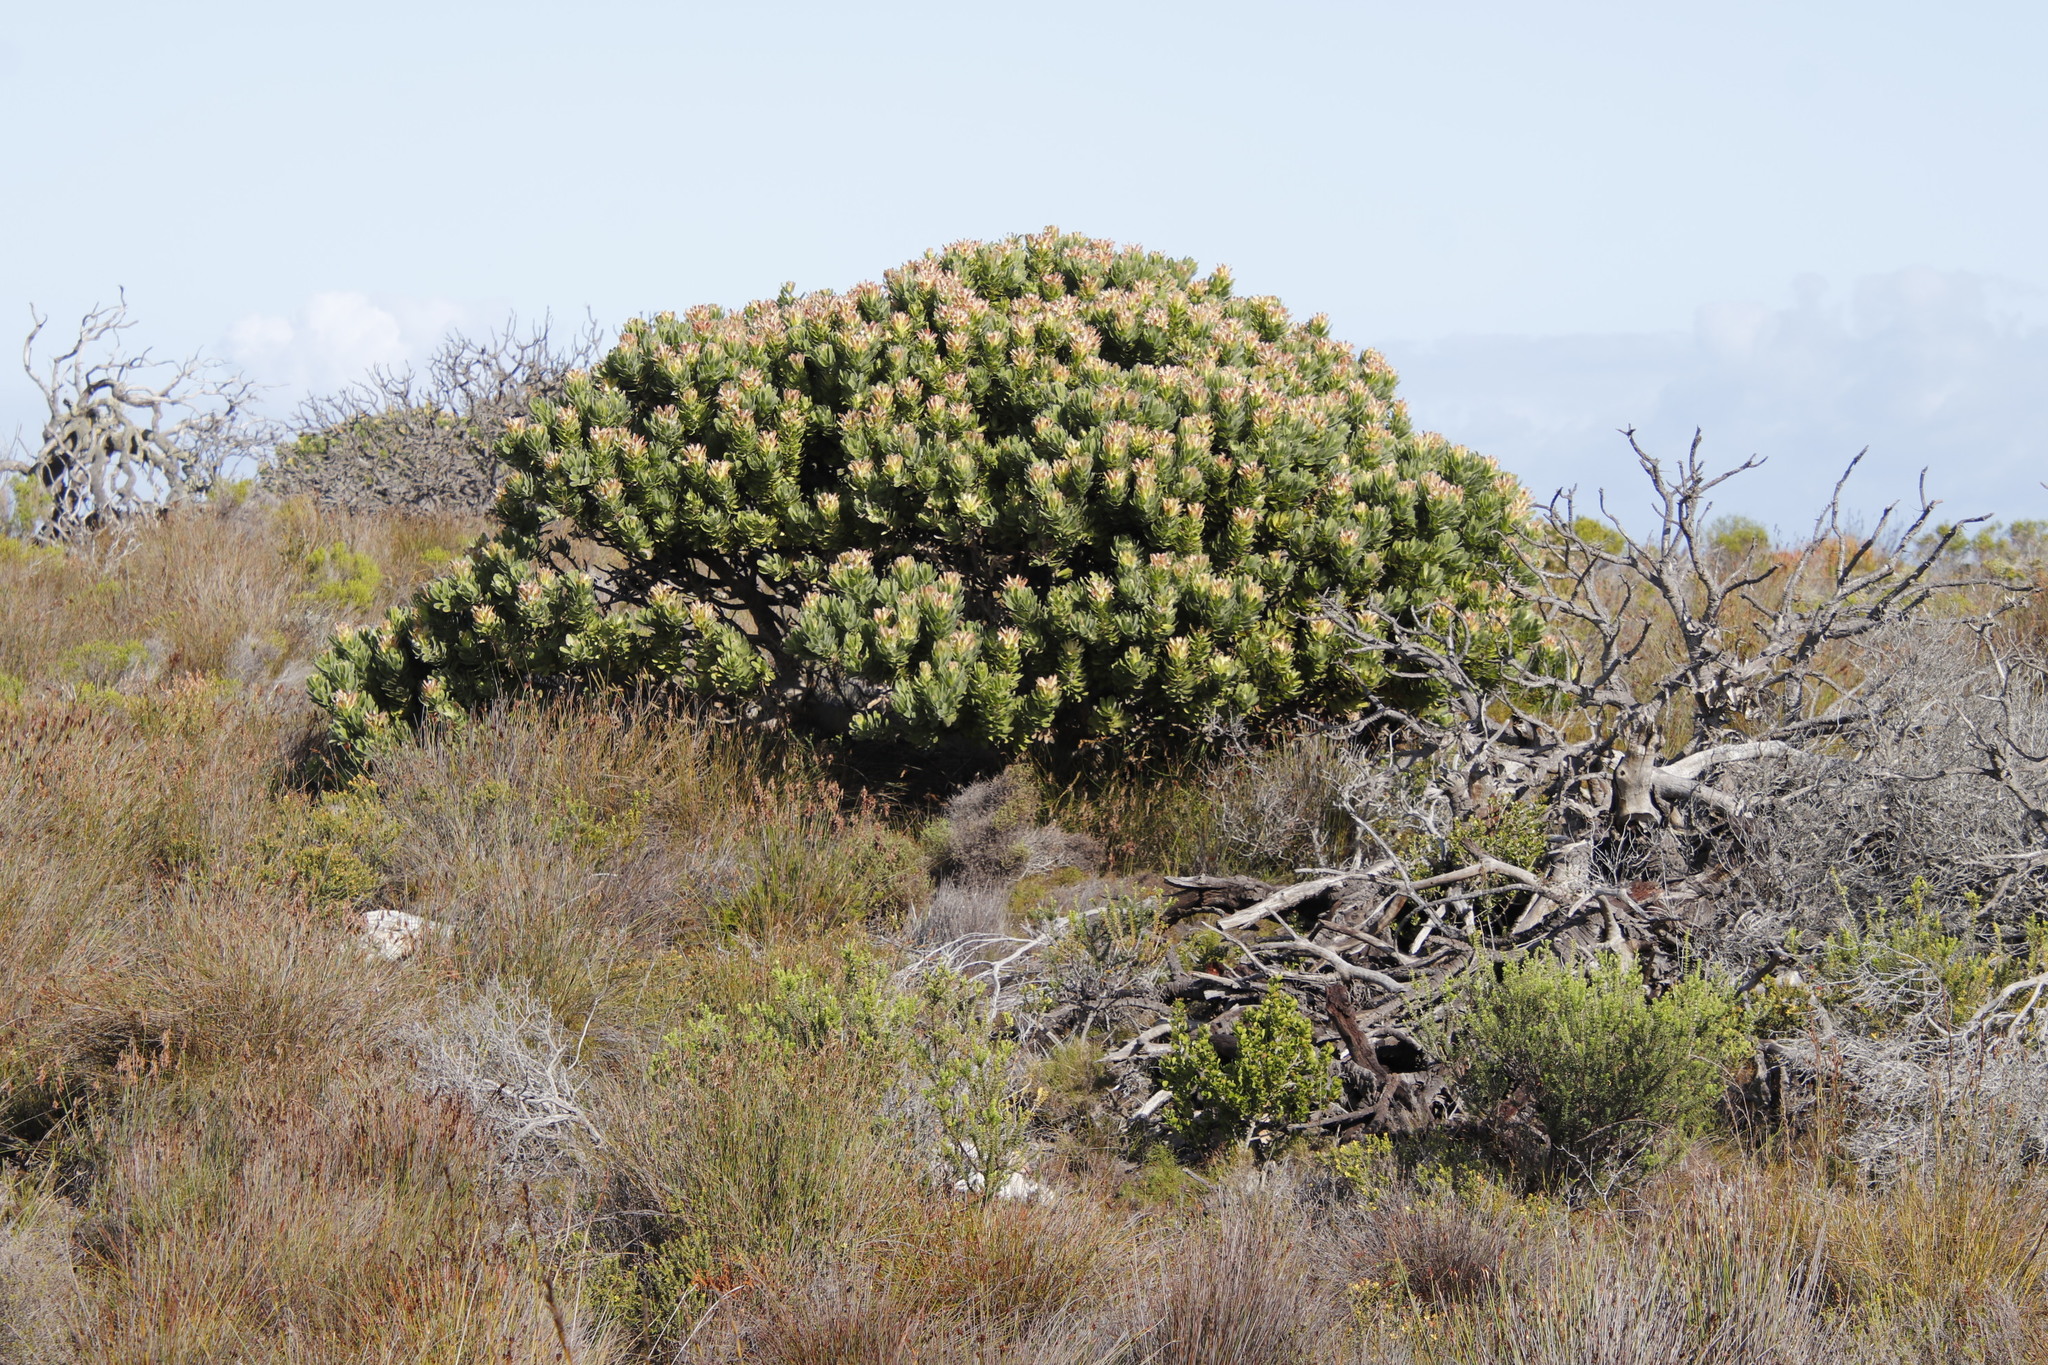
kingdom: Plantae
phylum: Tracheophyta
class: Magnoliopsida
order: Proteales
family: Proteaceae
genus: Mimetes
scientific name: Mimetes fimbriifolius
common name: Fringed bottlebrush
